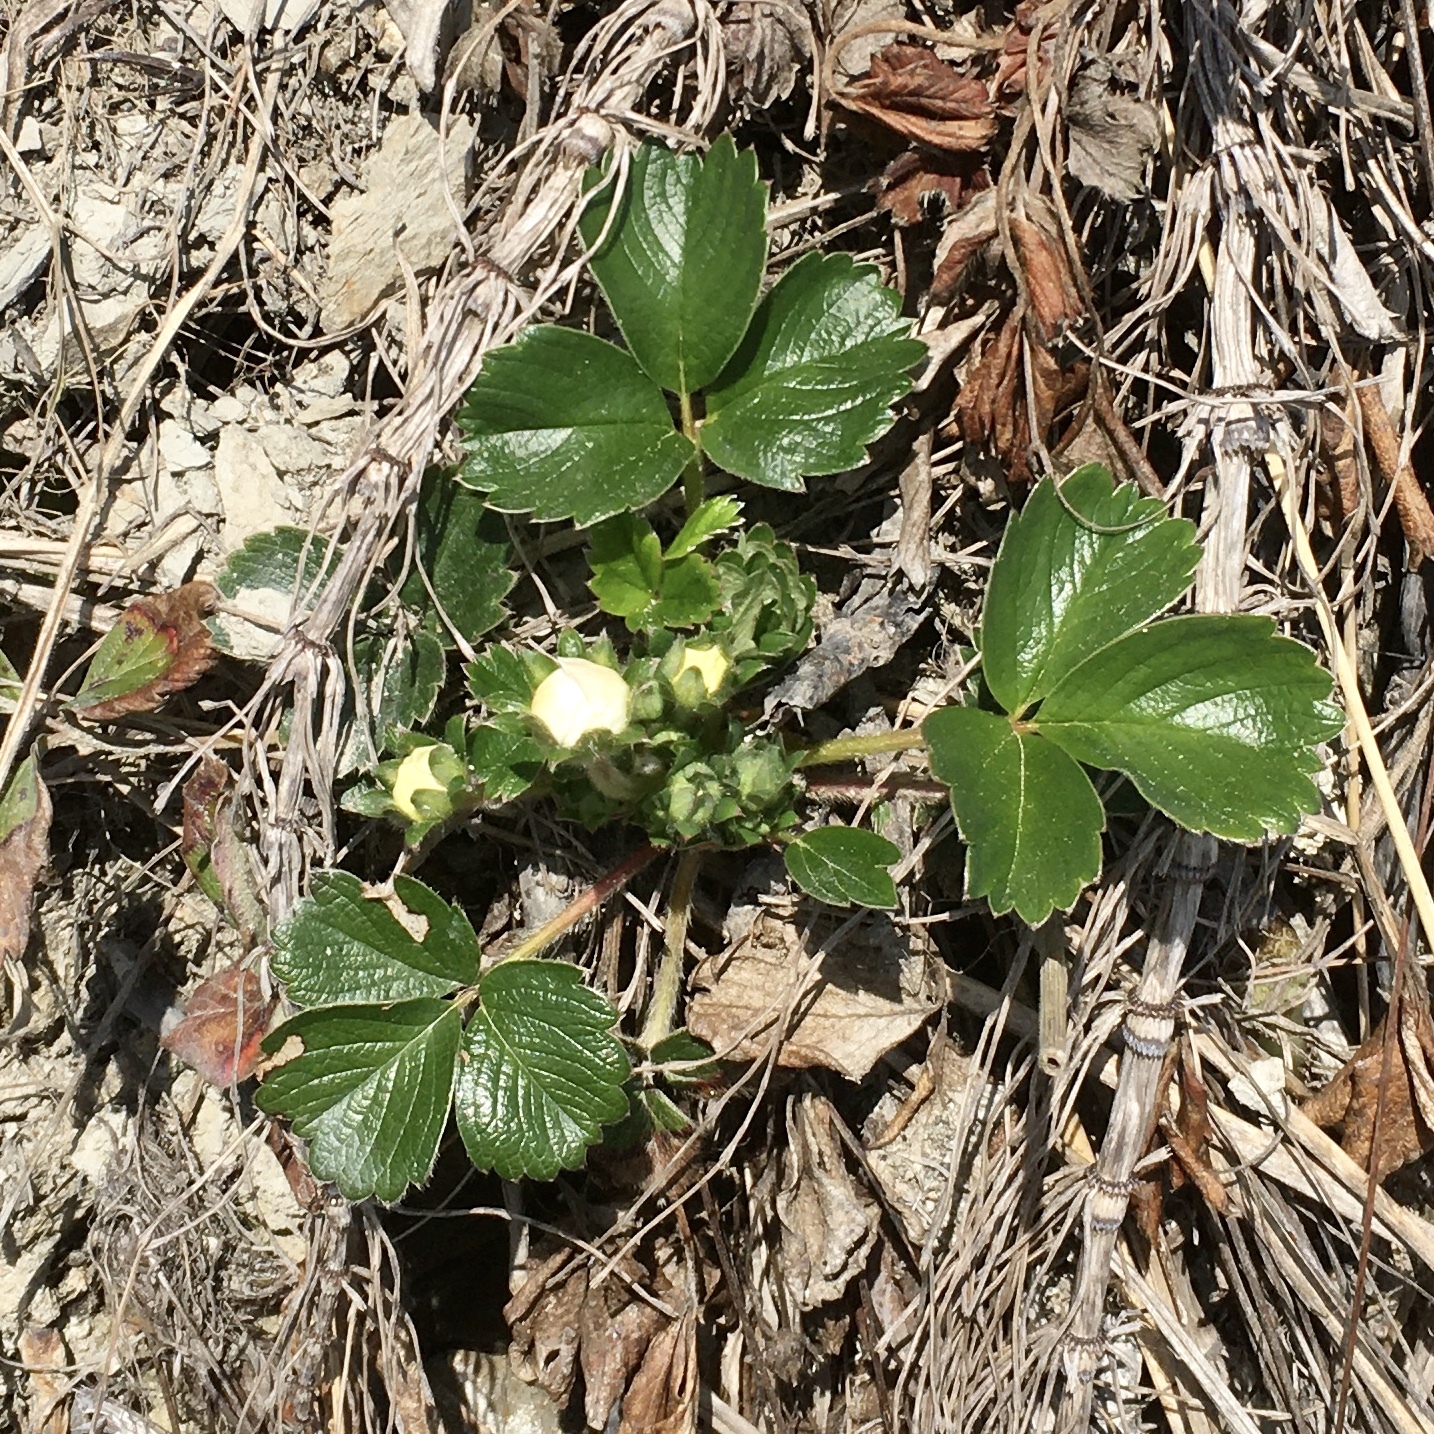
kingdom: Plantae
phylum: Tracheophyta
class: Magnoliopsida
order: Rosales
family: Rosaceae
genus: Fragaria
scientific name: Fragaria chiloensis
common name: Beach strawberry
